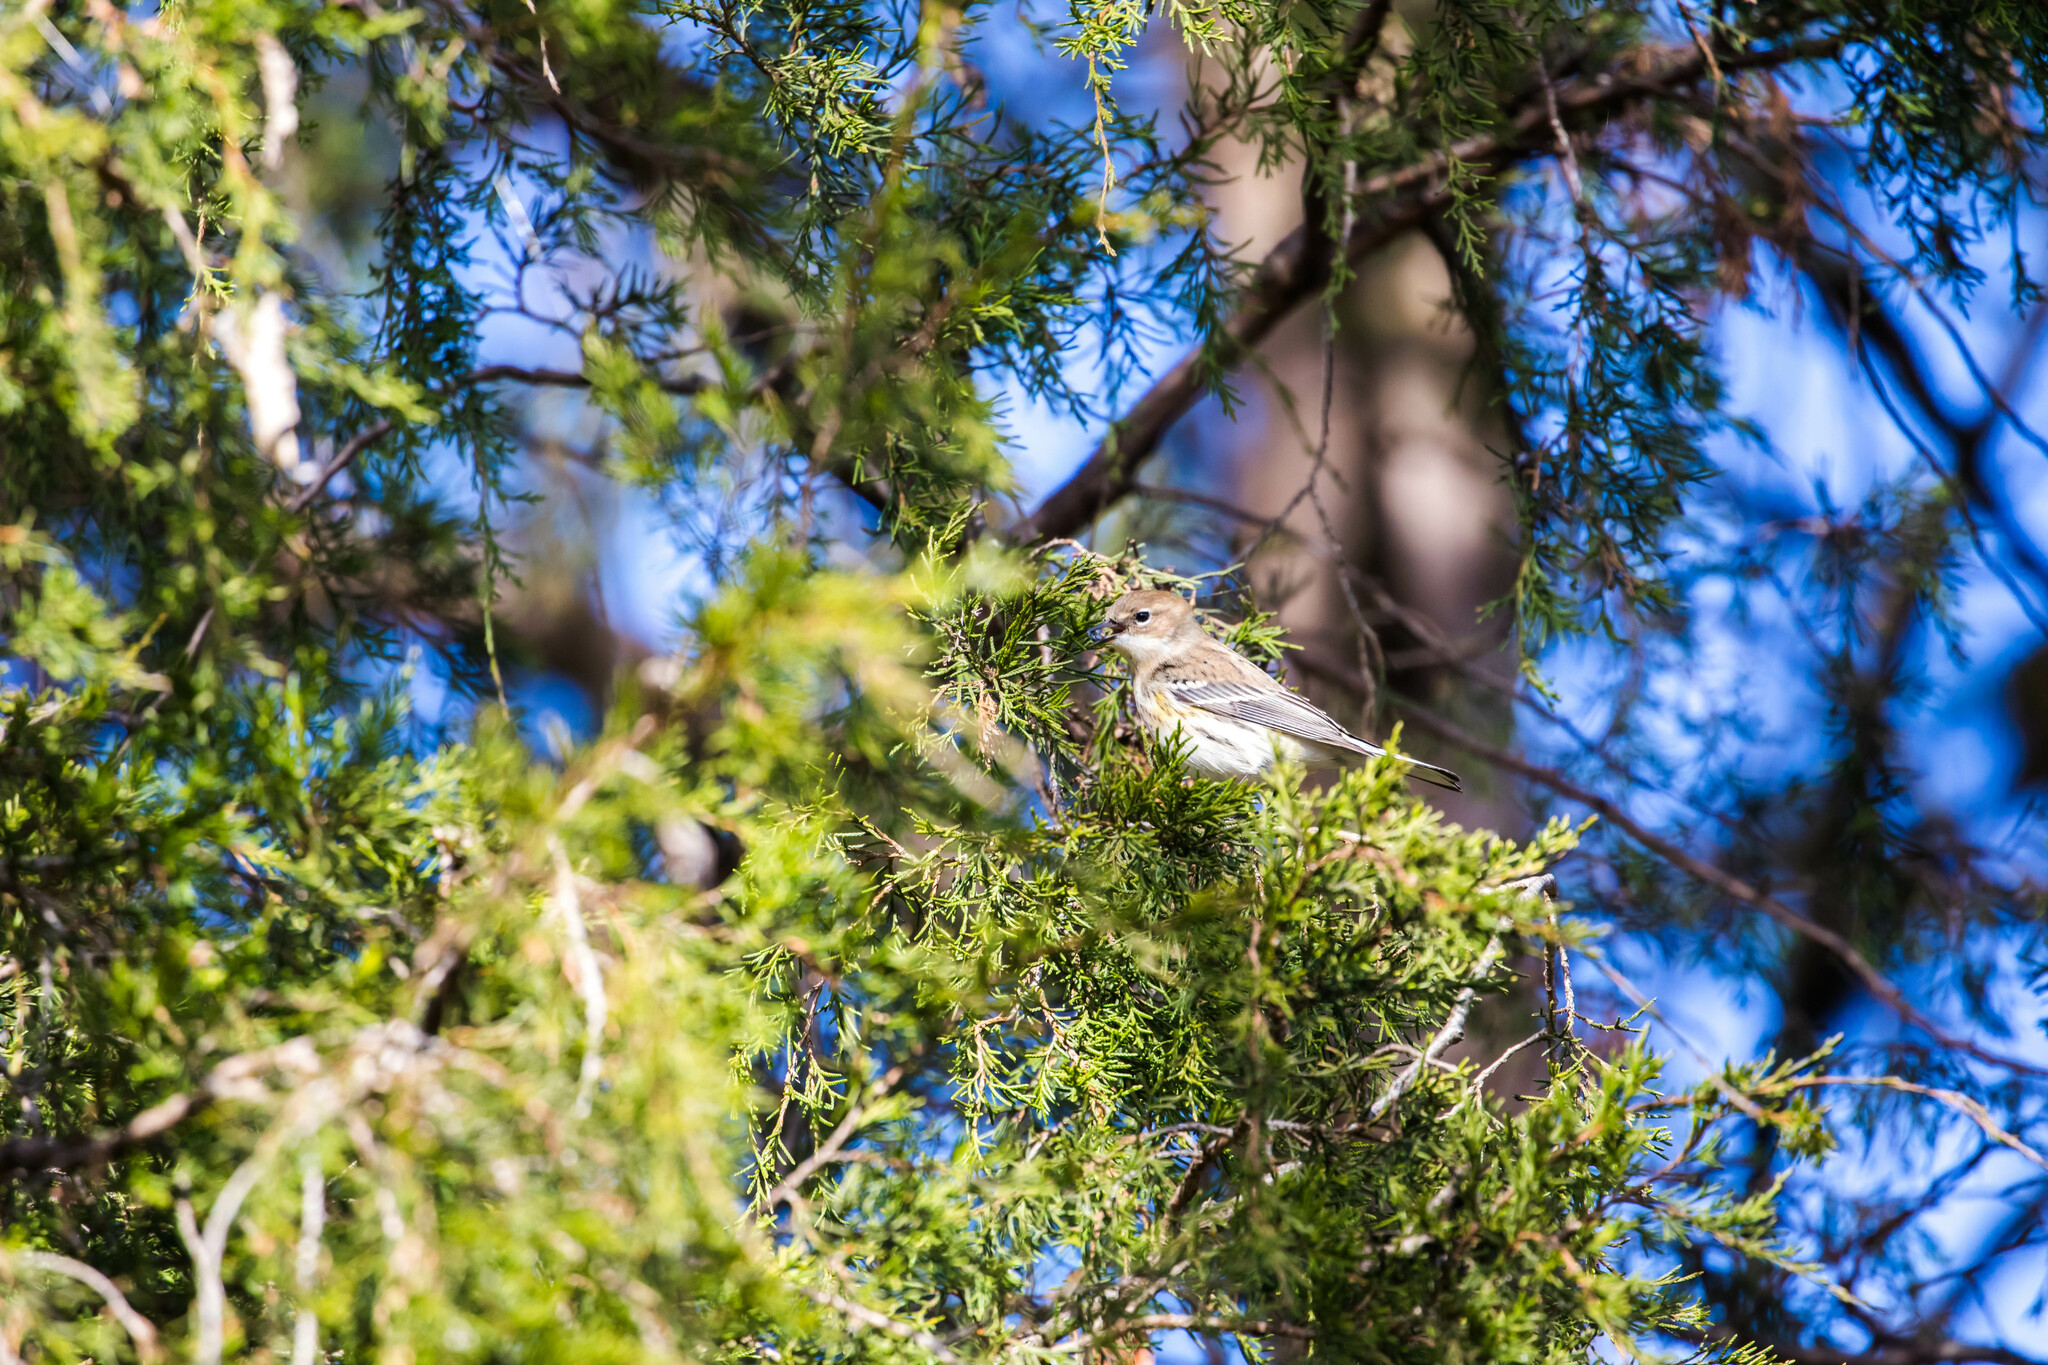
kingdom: Animalia
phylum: Chordata
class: Aves
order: Passeriformes
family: Parulidae
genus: Setophaga
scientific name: Setophaga coronata
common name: Myrtle warbler
